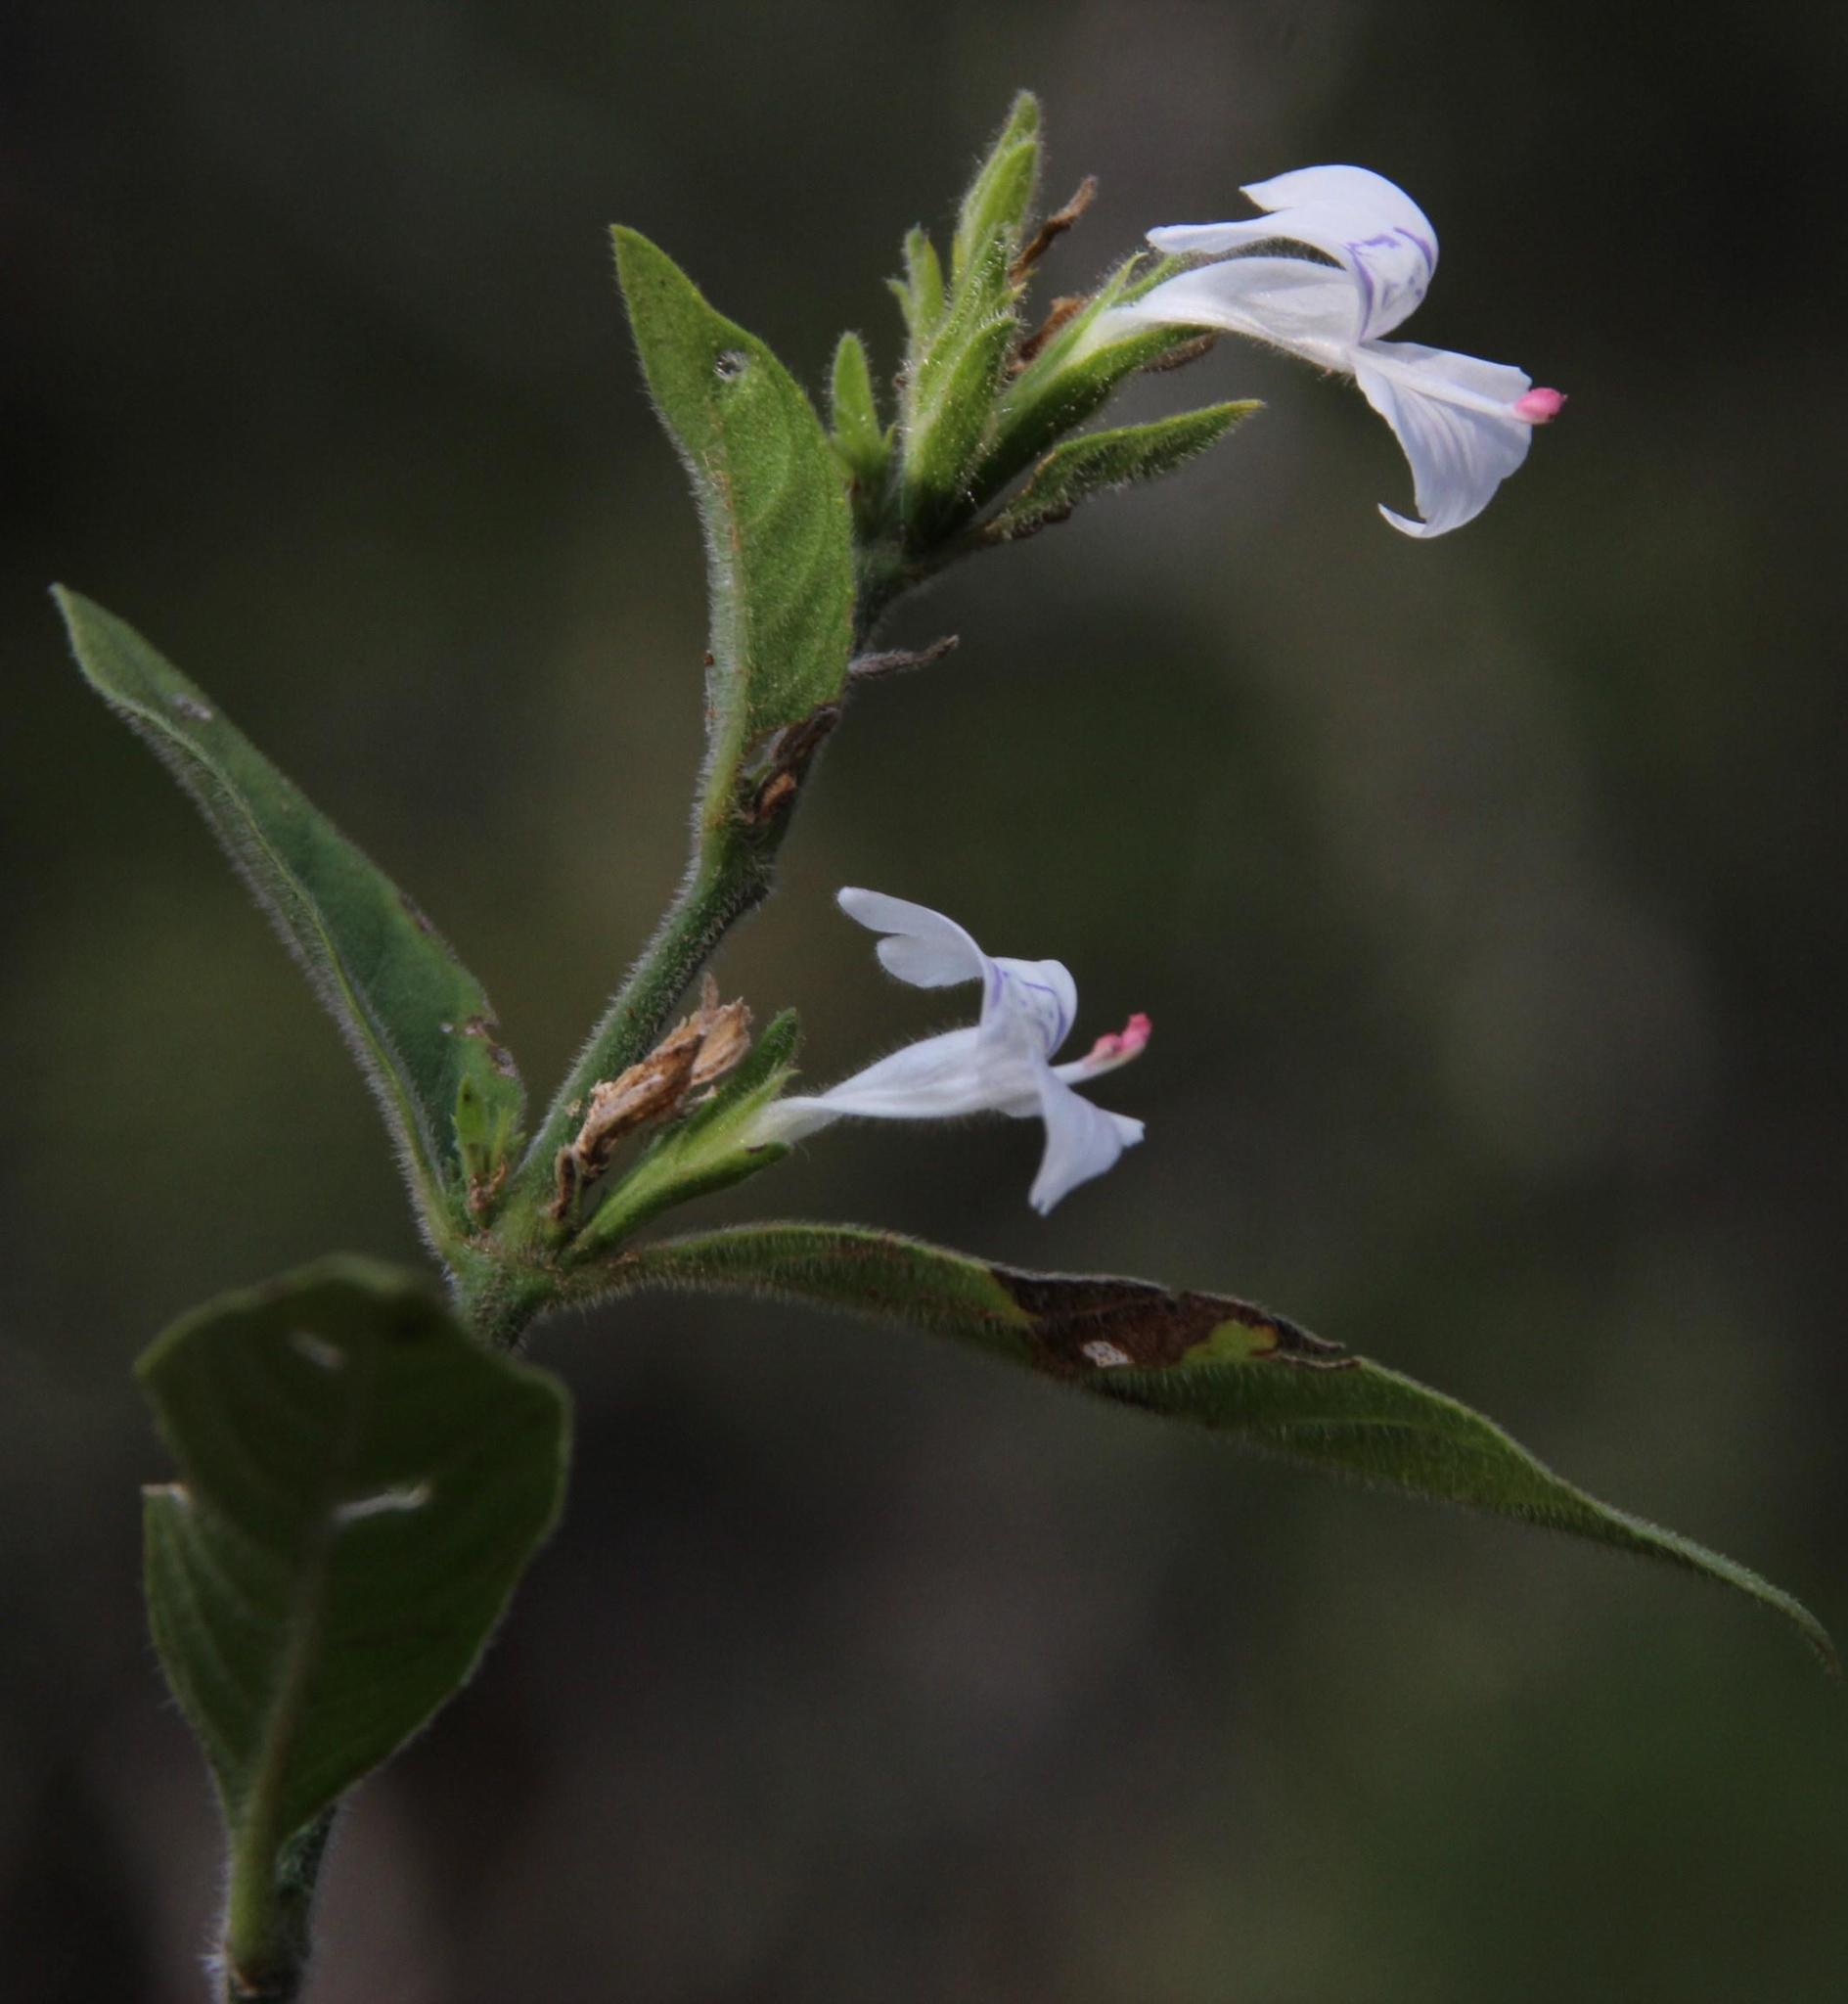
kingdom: Plantae
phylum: Tracheophyta
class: Magnoliopsida
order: Lamiales
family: Acanthaceae
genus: Hypoestes
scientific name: Hypoestes forskaolii
